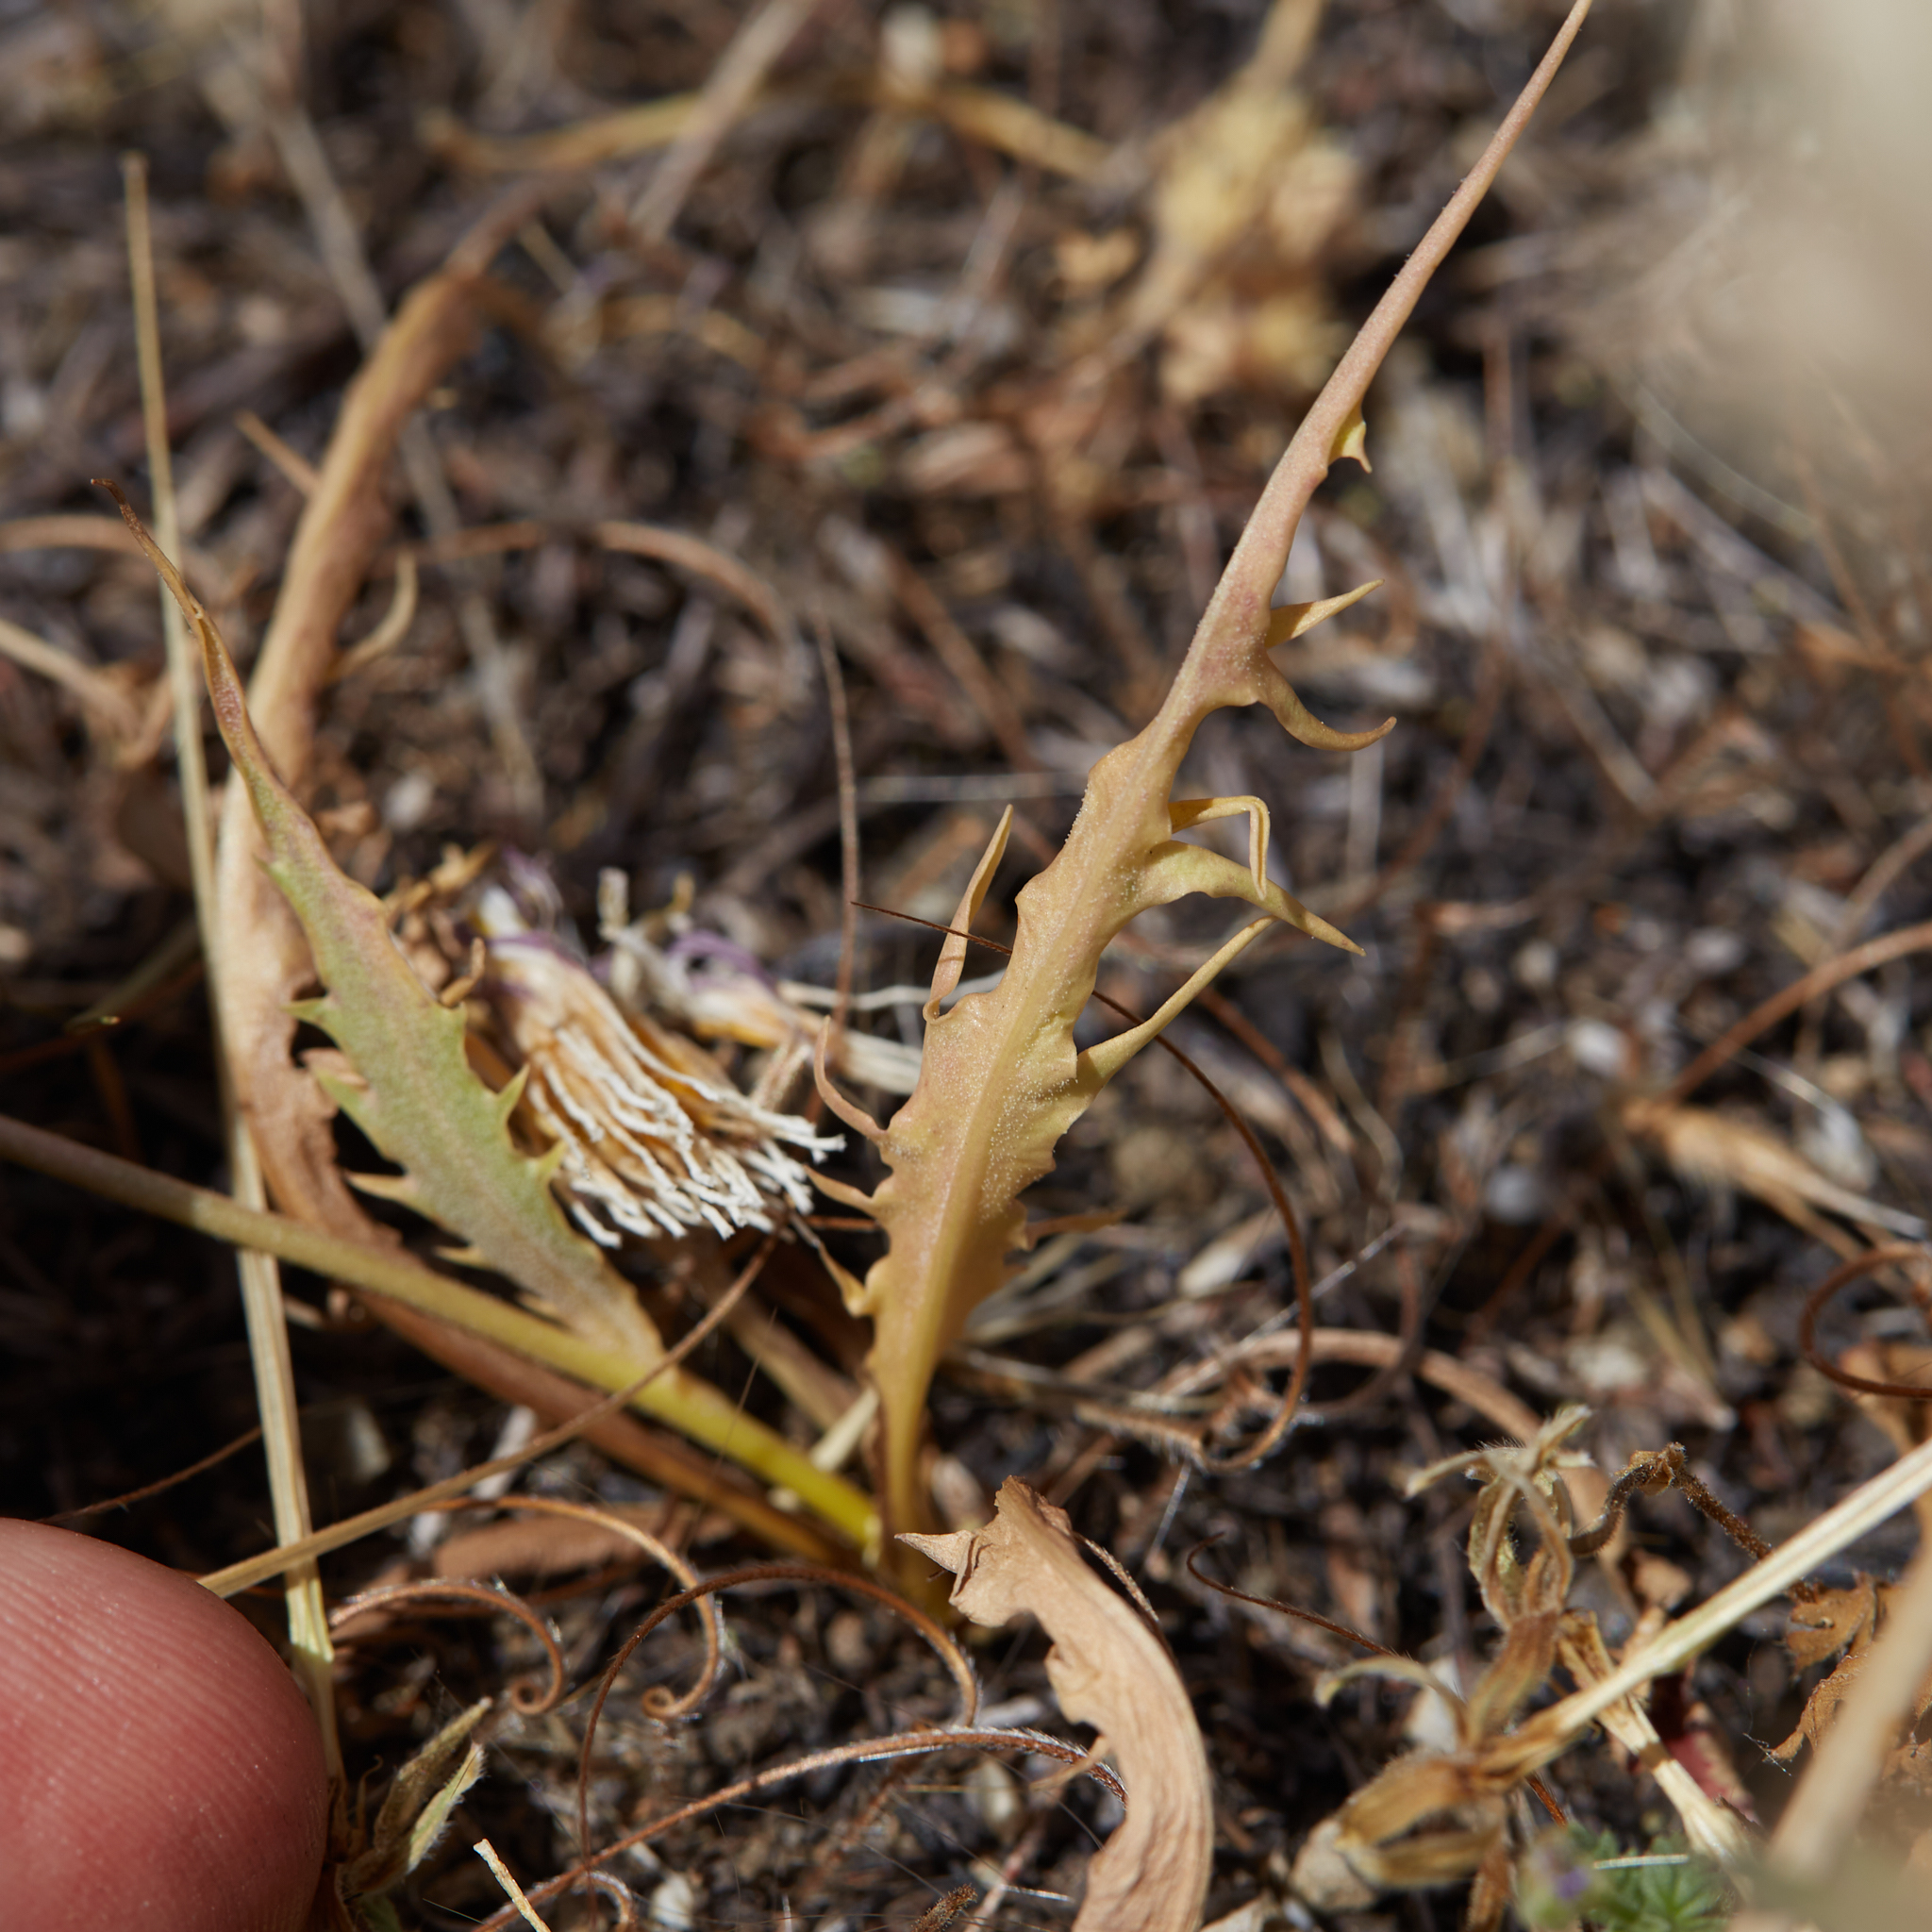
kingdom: Plantae
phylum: Tracheophyta
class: Magnoliopsida
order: Asterales
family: Asteraceae
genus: Microseris
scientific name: Microseris sylvatica
